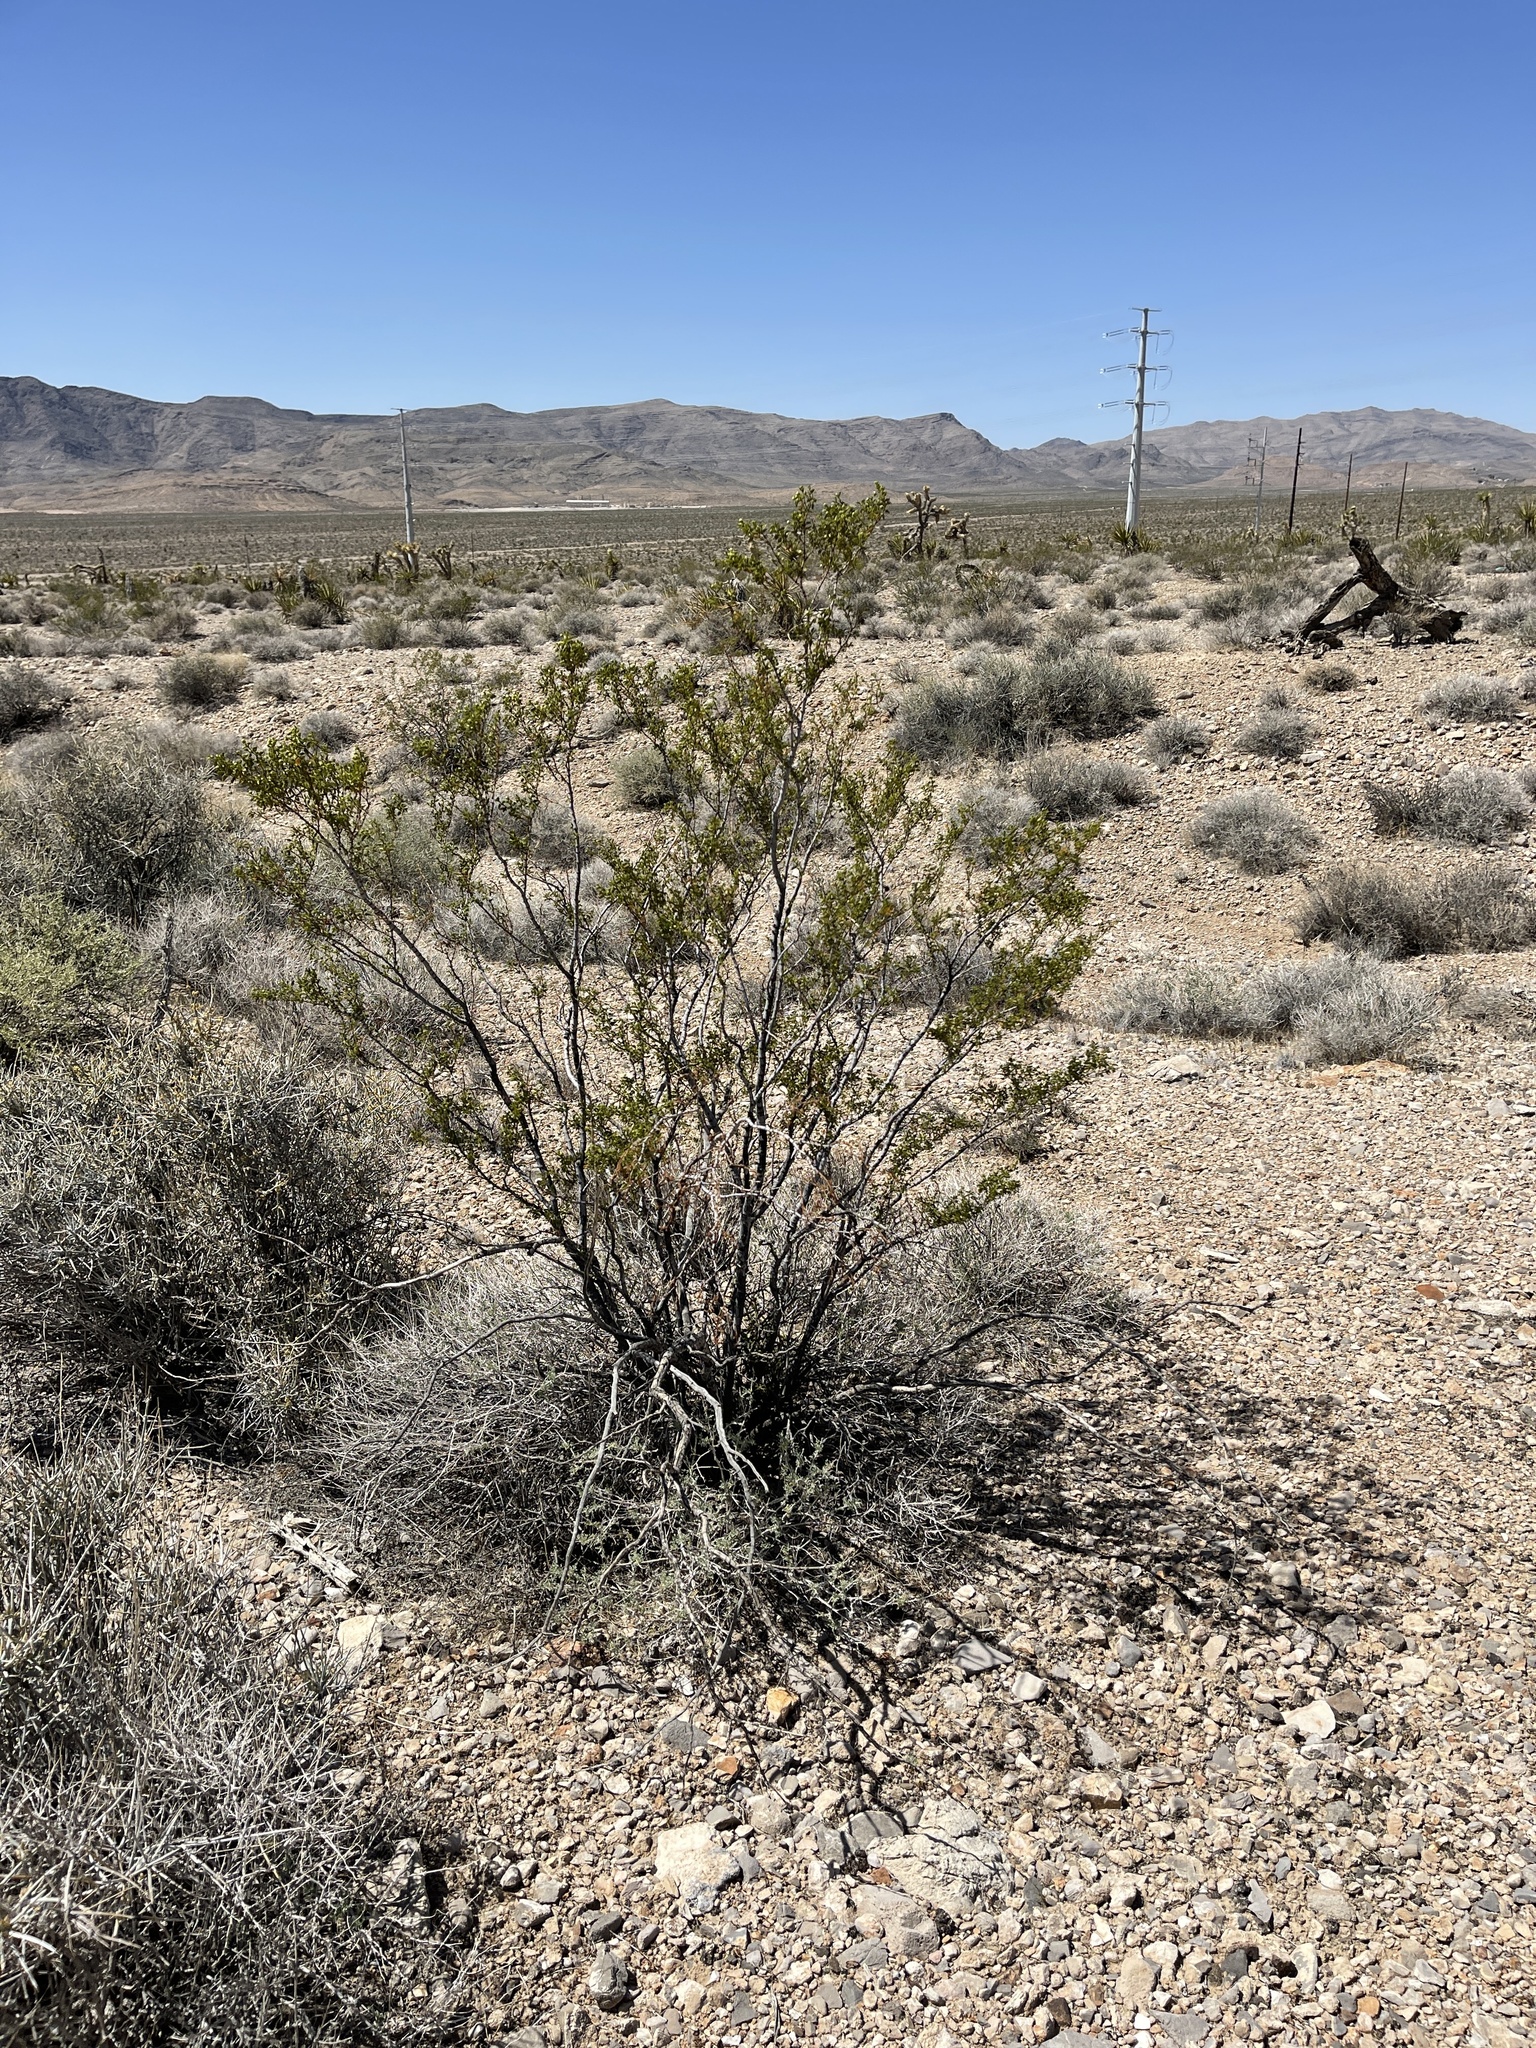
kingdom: Plantae
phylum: Tracheophyta
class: Magnoliopsida
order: Zygophyllales
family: Zygophyllaceae
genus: Larrea
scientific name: Larrea tridentata
